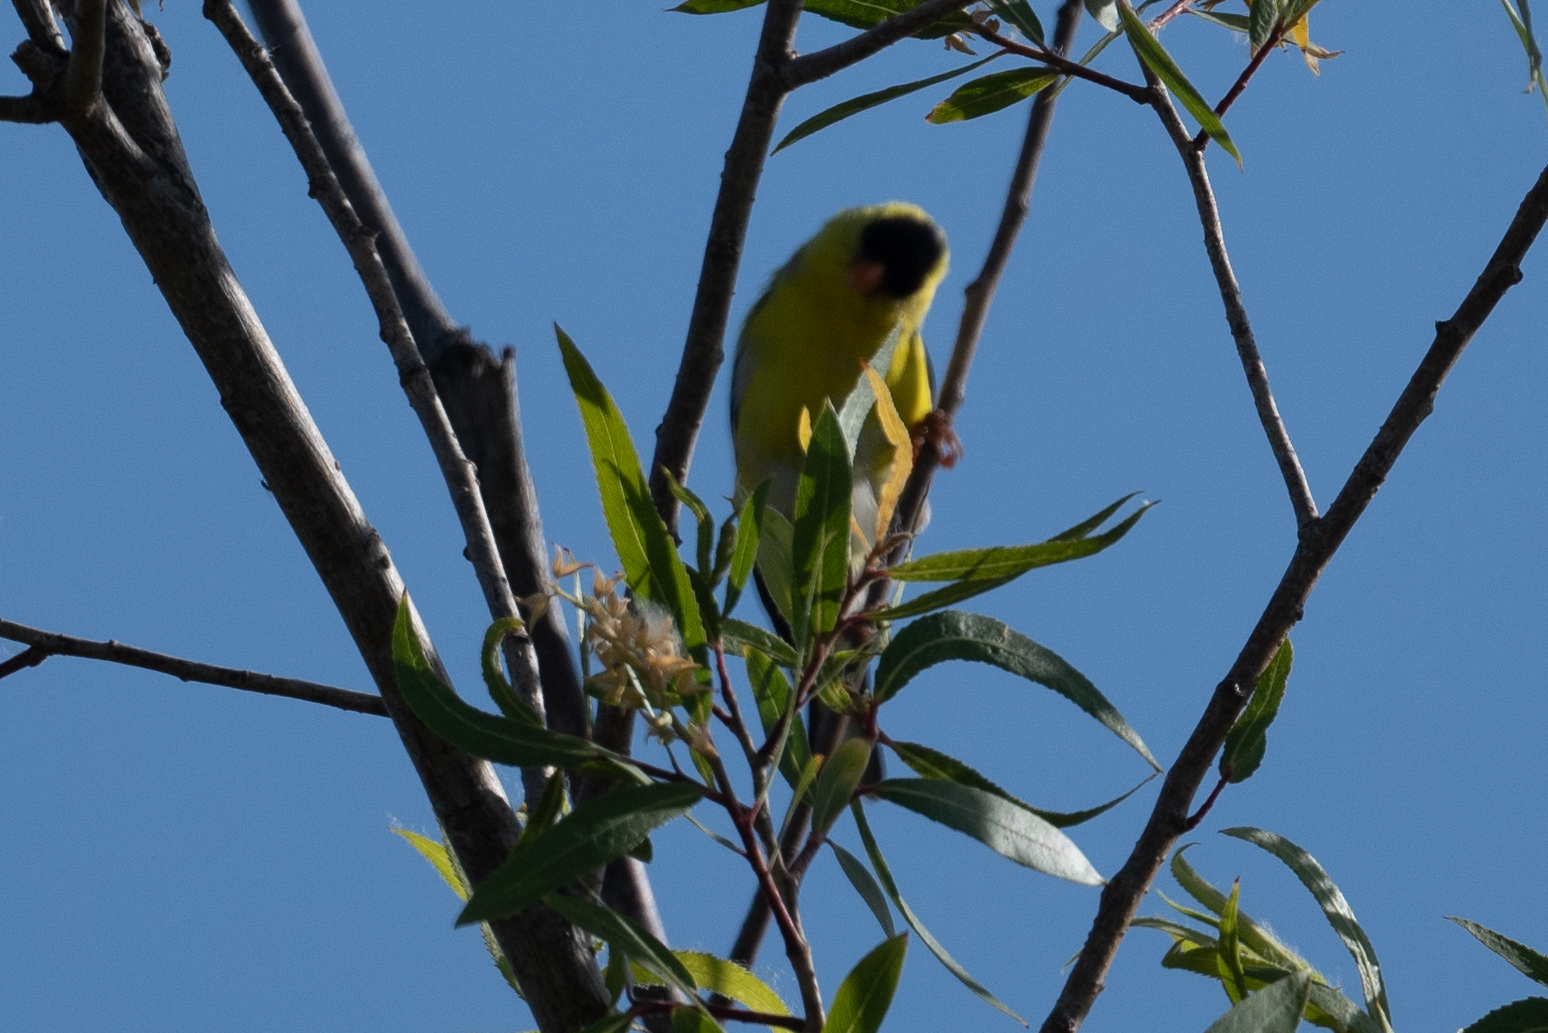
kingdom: Animalia
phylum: Chordata
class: Aves
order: Passeriformes
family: Fringillidae
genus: Spinus
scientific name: Spinus psaltria
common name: Lesser goldfinch
